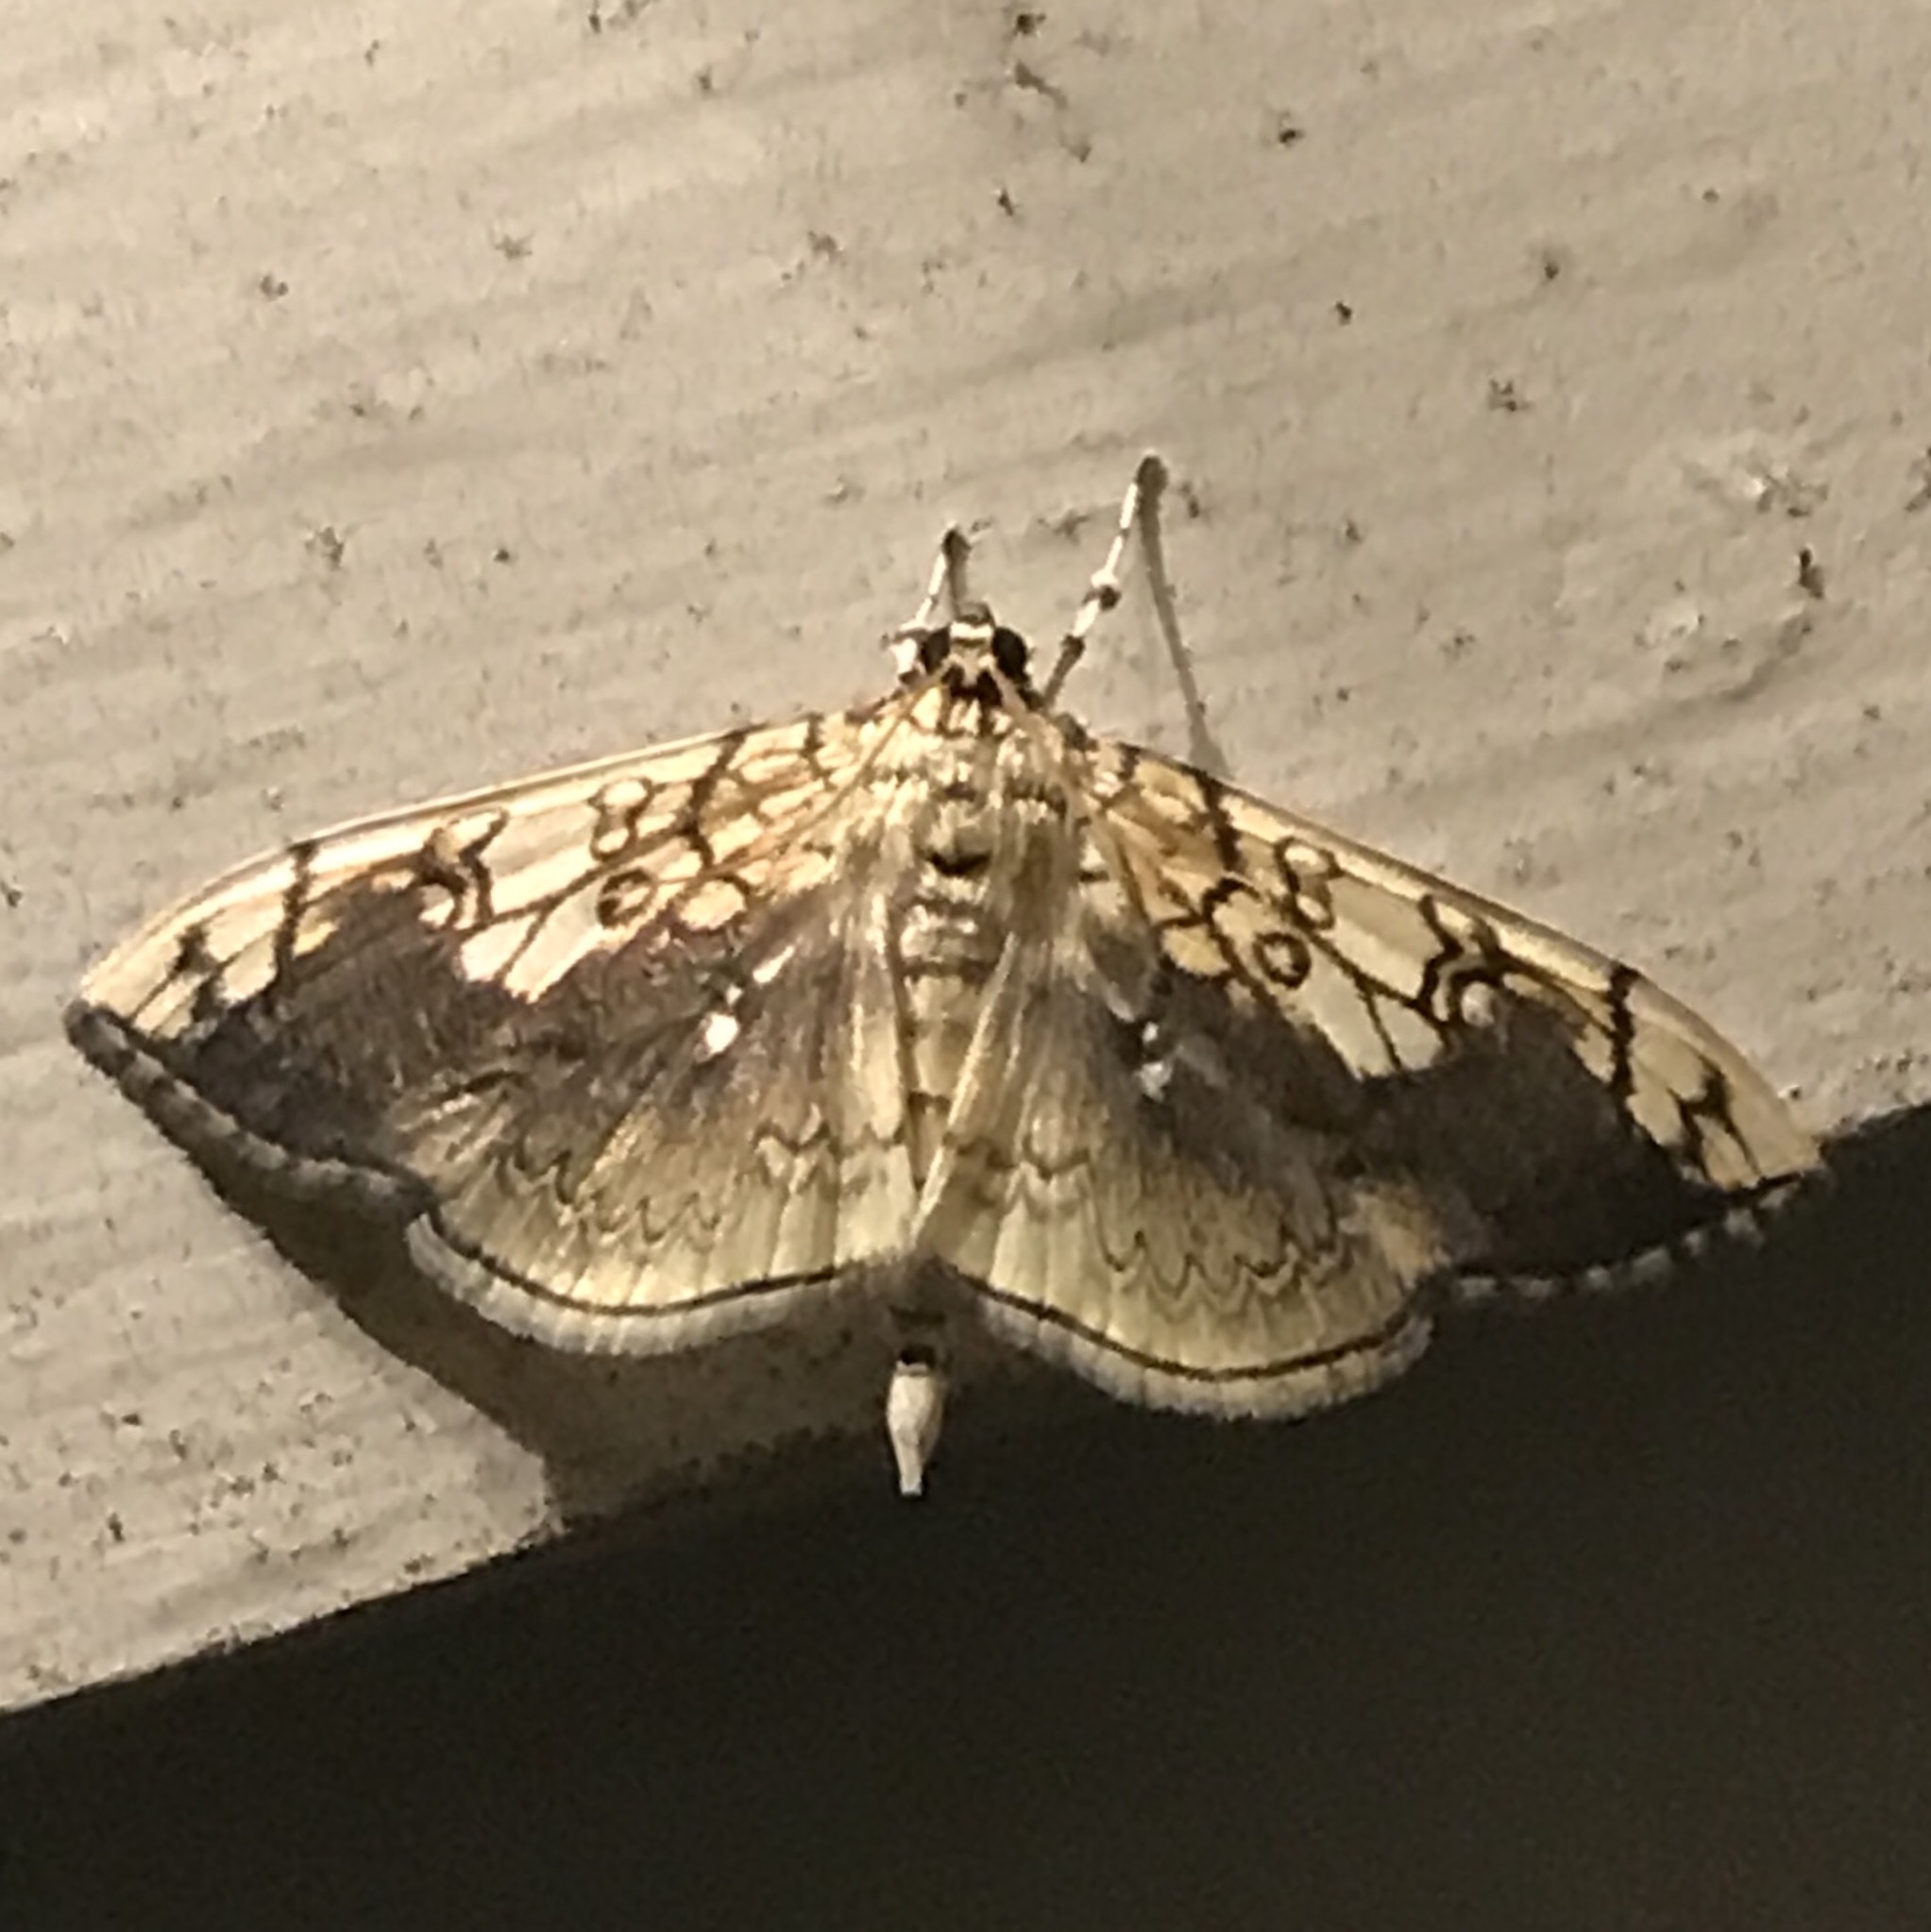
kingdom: Animalia
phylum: Arthropoda
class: Insecta
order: Lepidoptera
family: Crambidae
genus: Pantographa
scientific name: Pantographa limata
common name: Basswood leafroller moth
